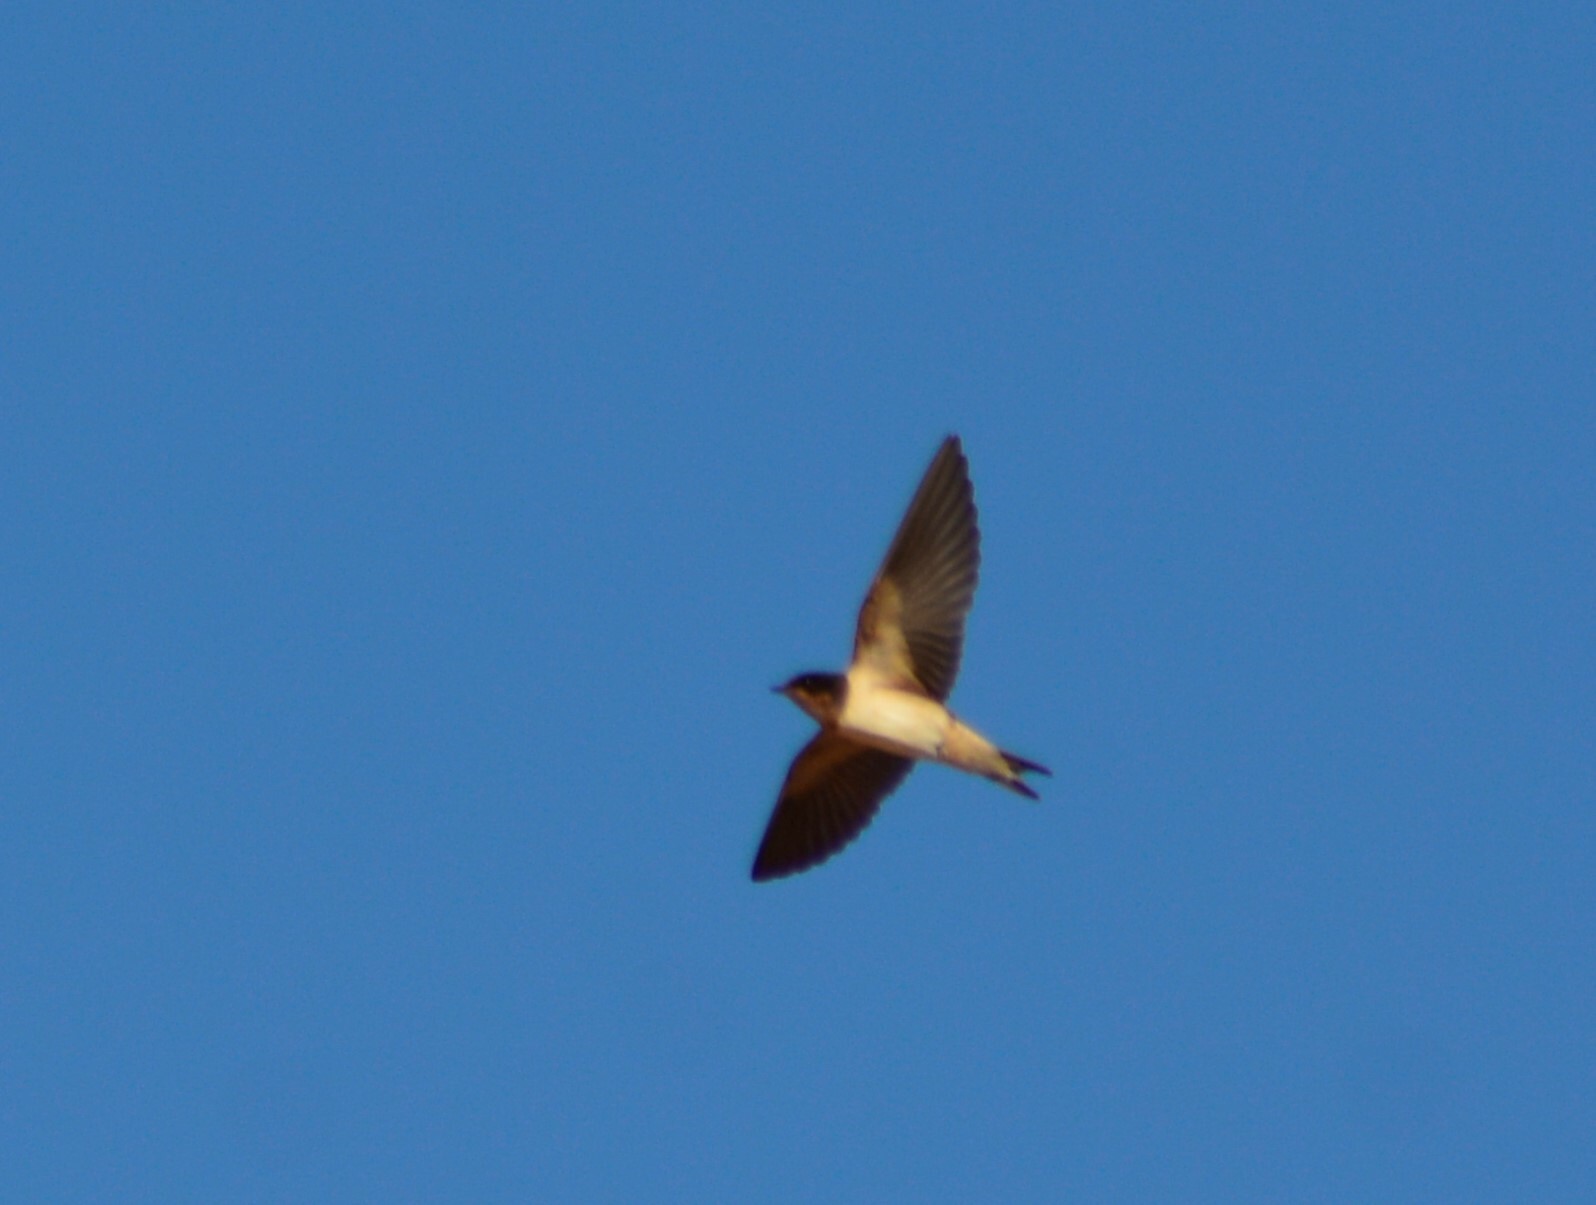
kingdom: Animalia
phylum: Chordata
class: Aves
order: Passeriformes
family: Hirundinidae
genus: Hirundo
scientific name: Hirundo rustica
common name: Barn swallow
